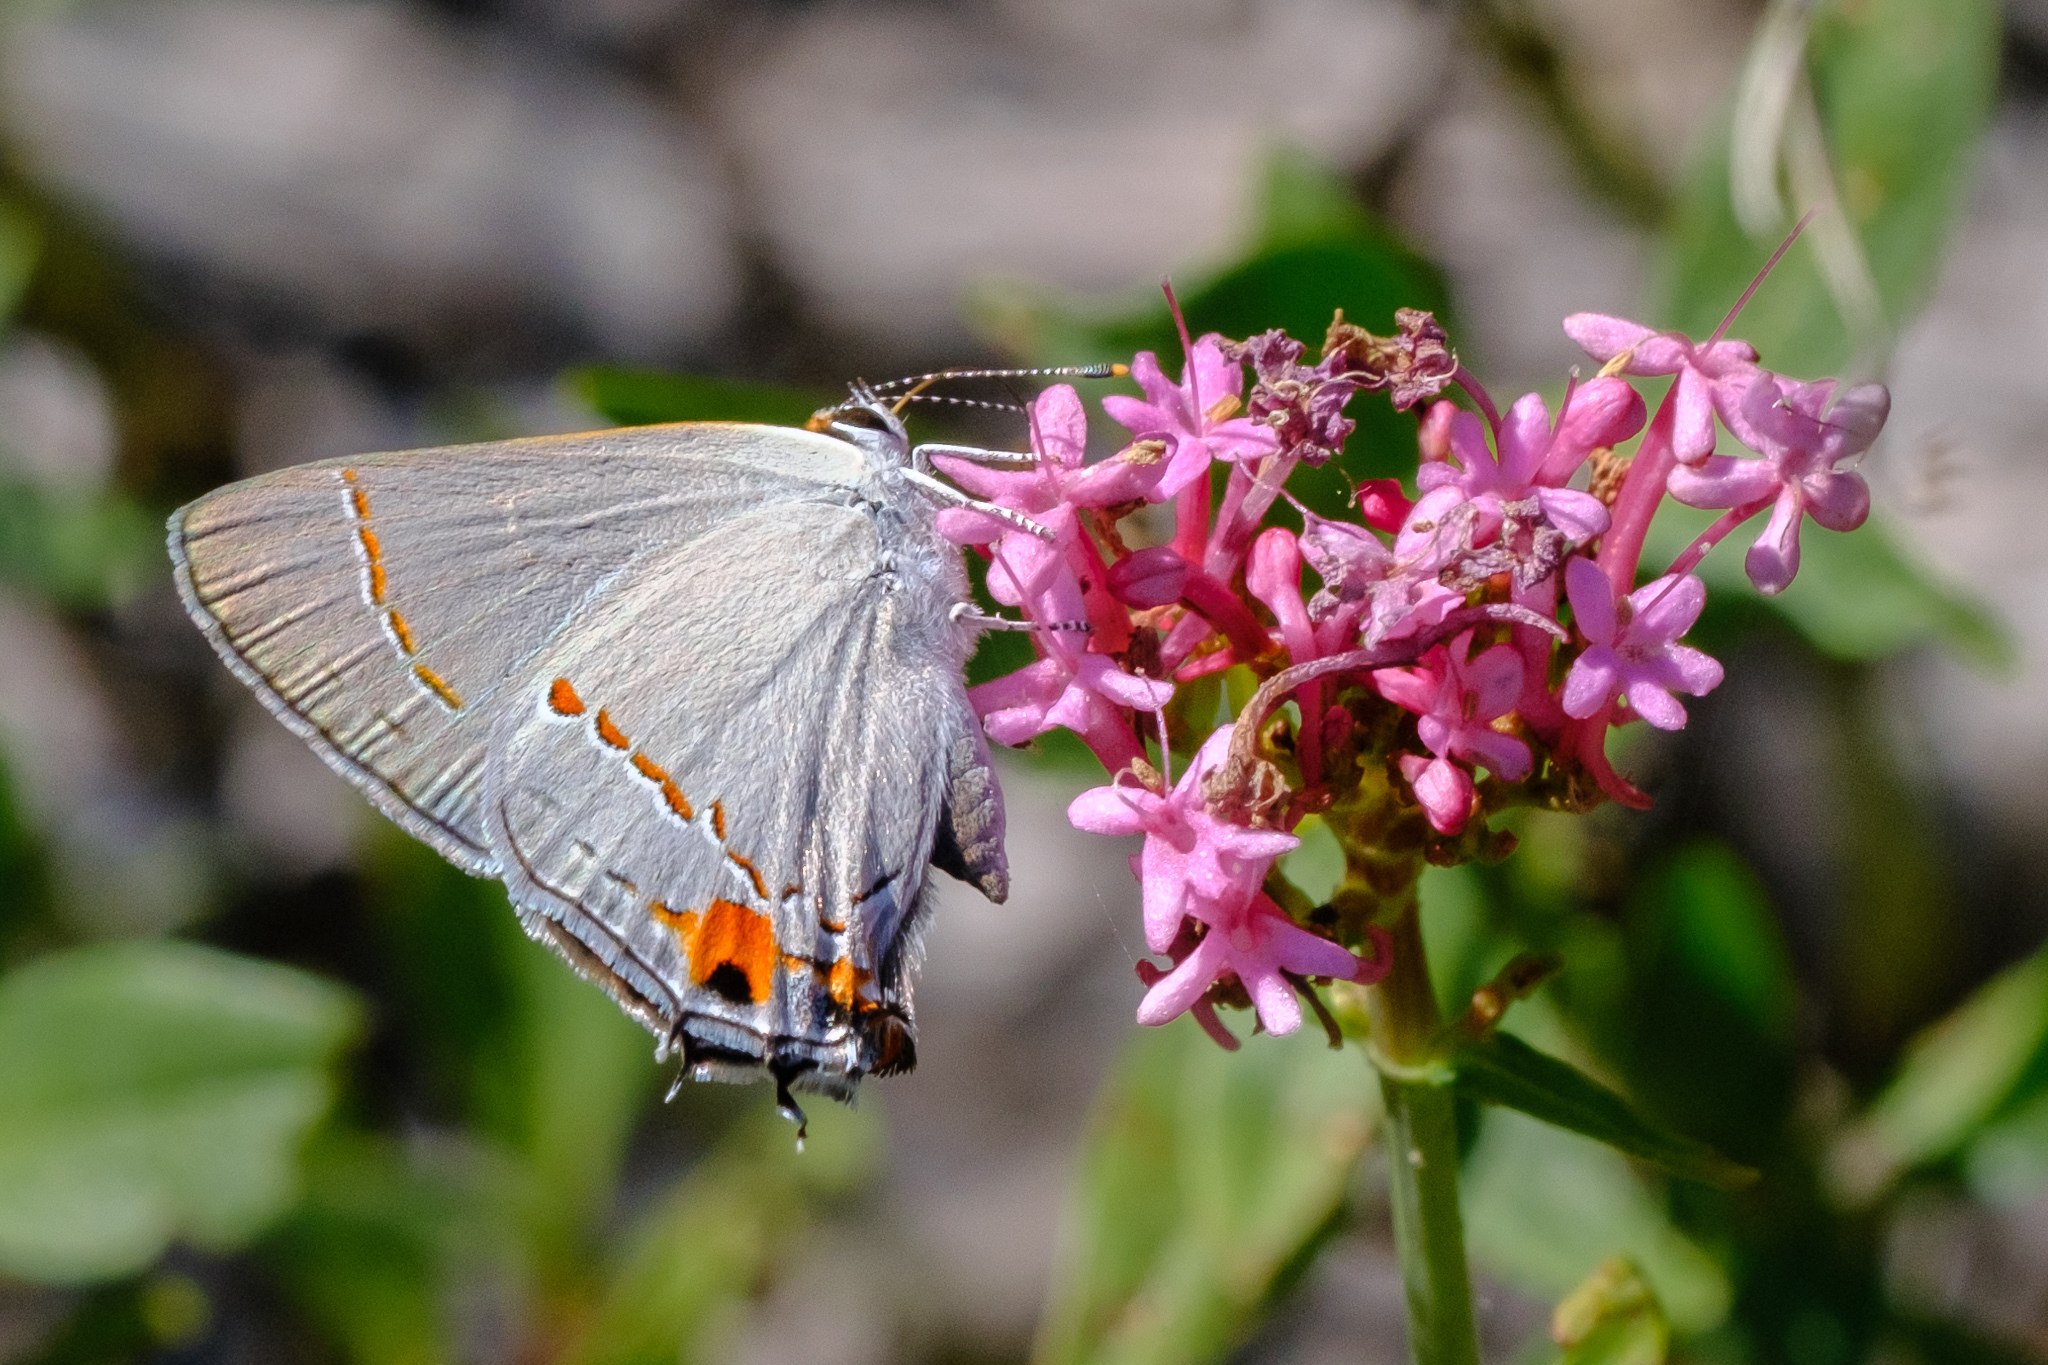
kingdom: Animalia
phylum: Arthropoda
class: Insecta
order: Lepidoptera
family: Lycaenidae
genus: Strymon
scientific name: Strymon melinus
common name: Gray hairstreak
